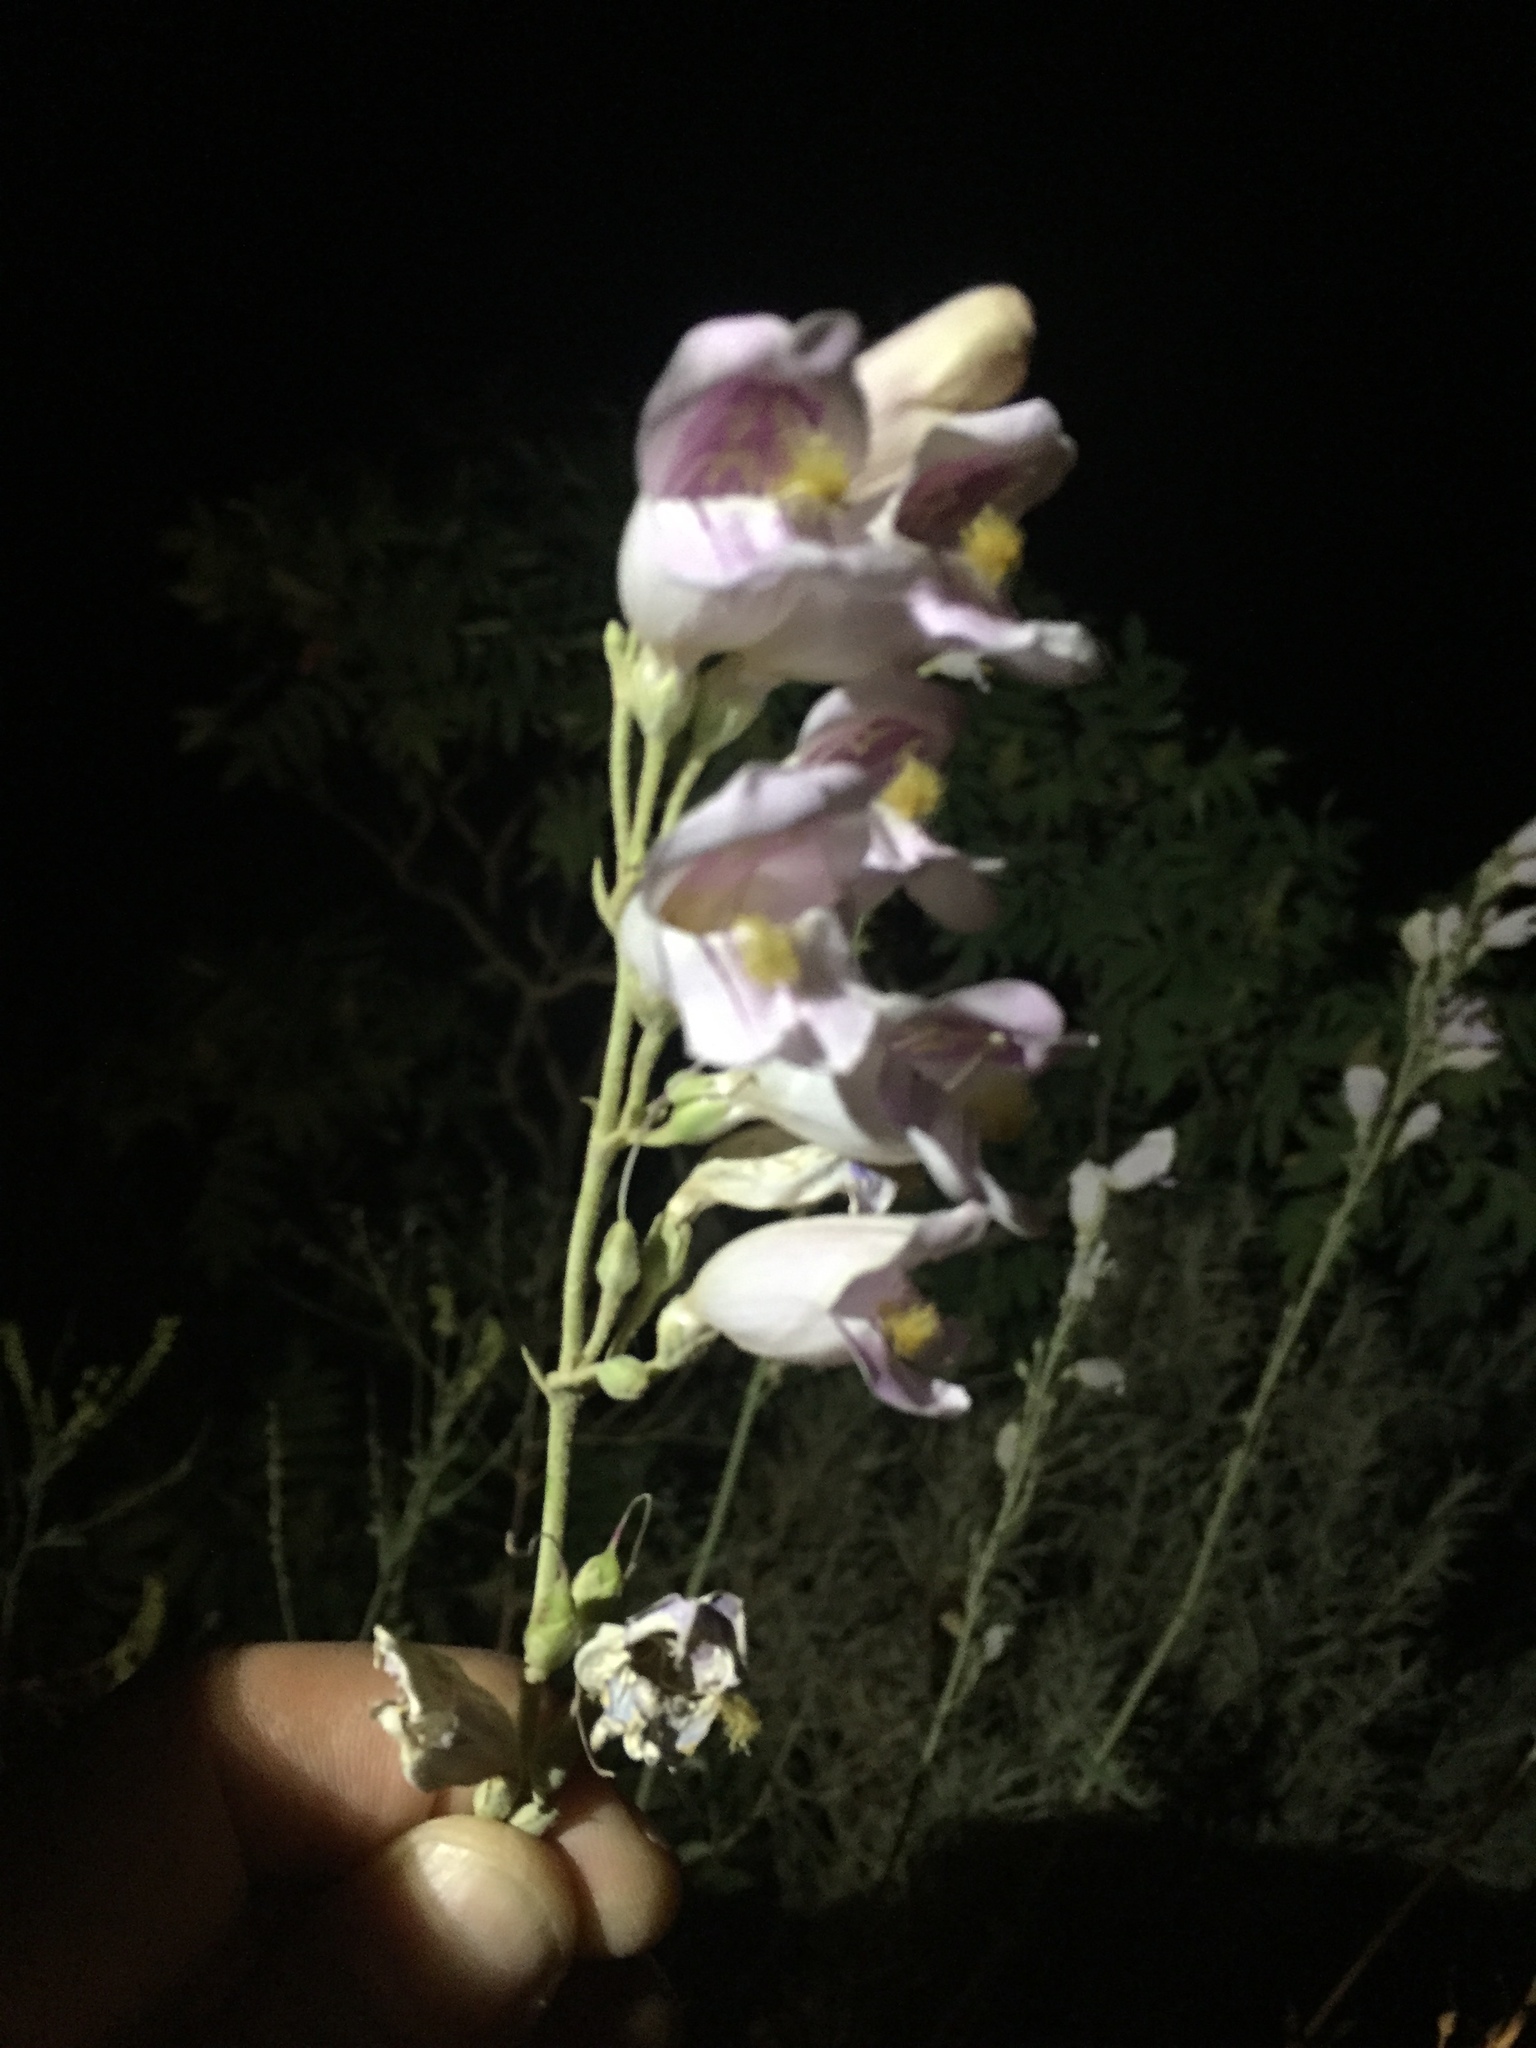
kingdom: Plantae
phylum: Tracheophyta
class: Magnoliopsida
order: Lamiales
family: Plantaginaceae
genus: Penstemon
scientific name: Penstemon palmeri
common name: Palmer penstemon
